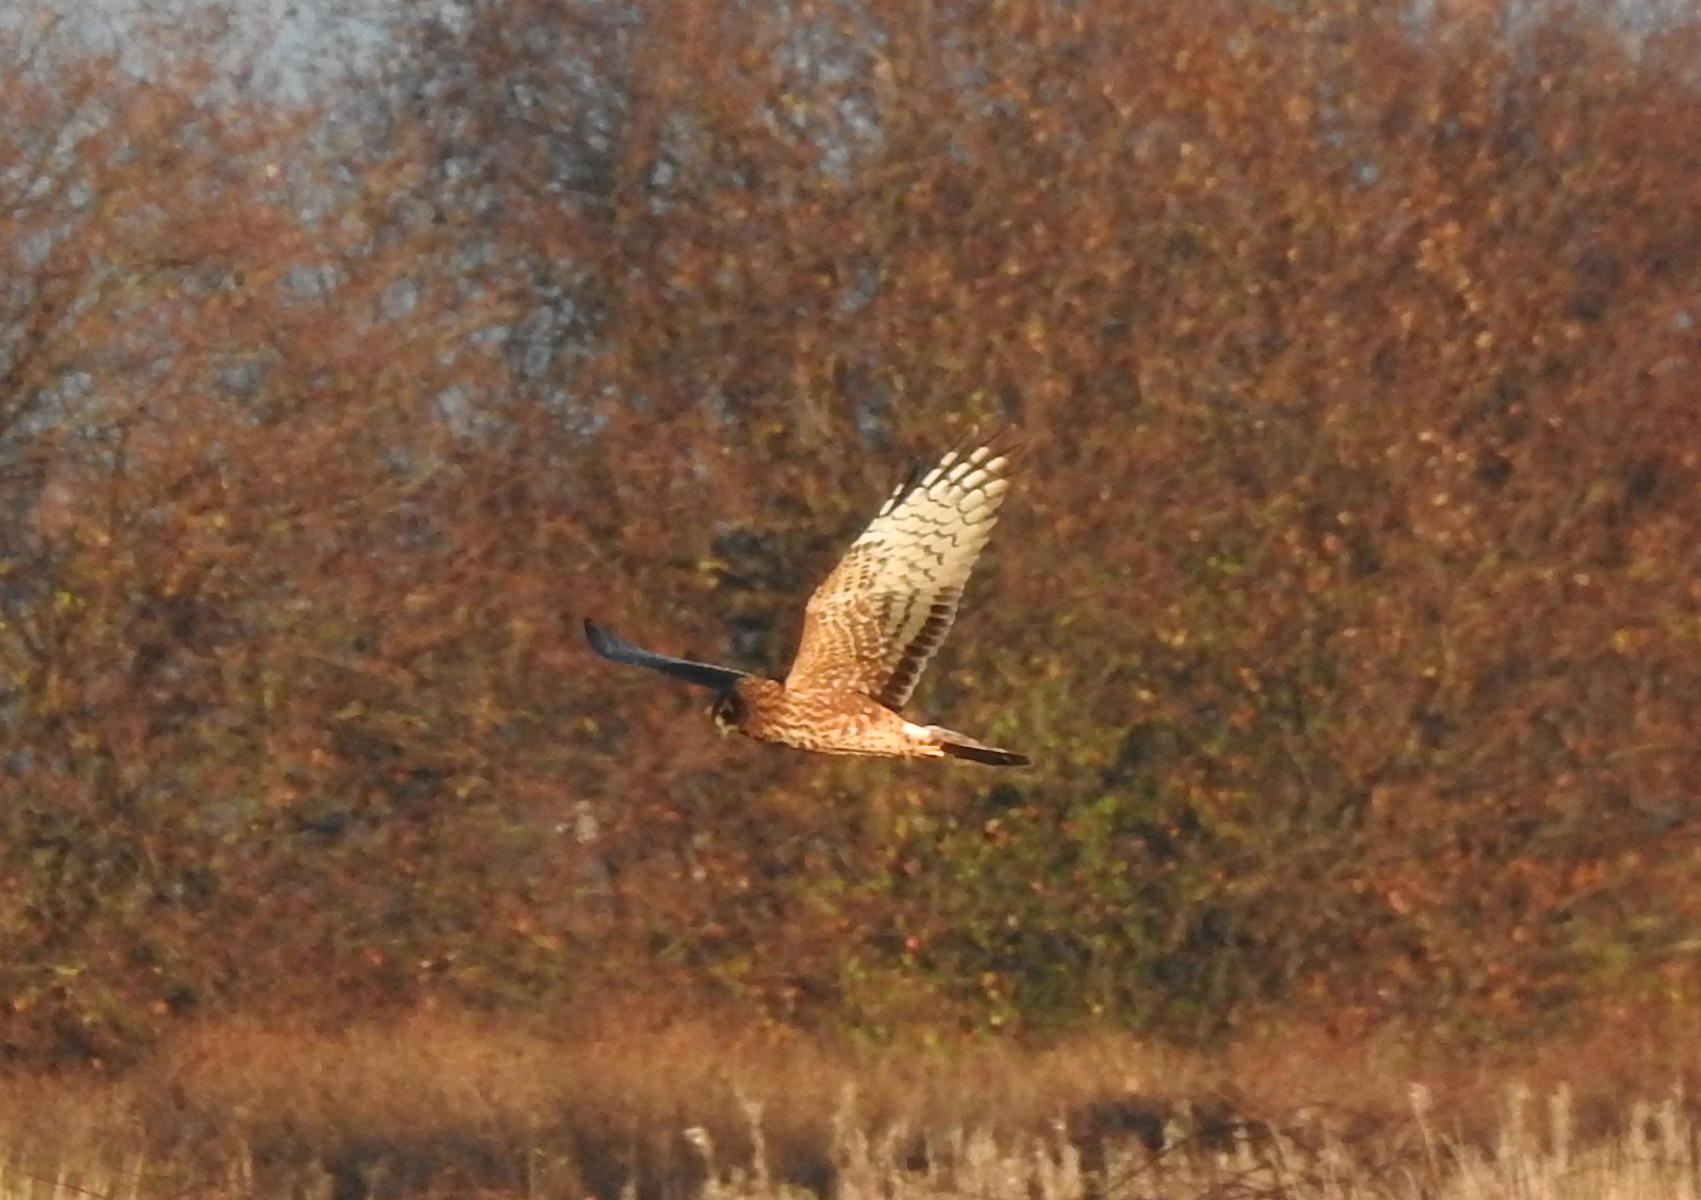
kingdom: Animalia
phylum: Chordata
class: Aves
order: Accipitriformes
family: Accipitridae
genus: Circus
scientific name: Circus cyaneus
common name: Hen harrier
